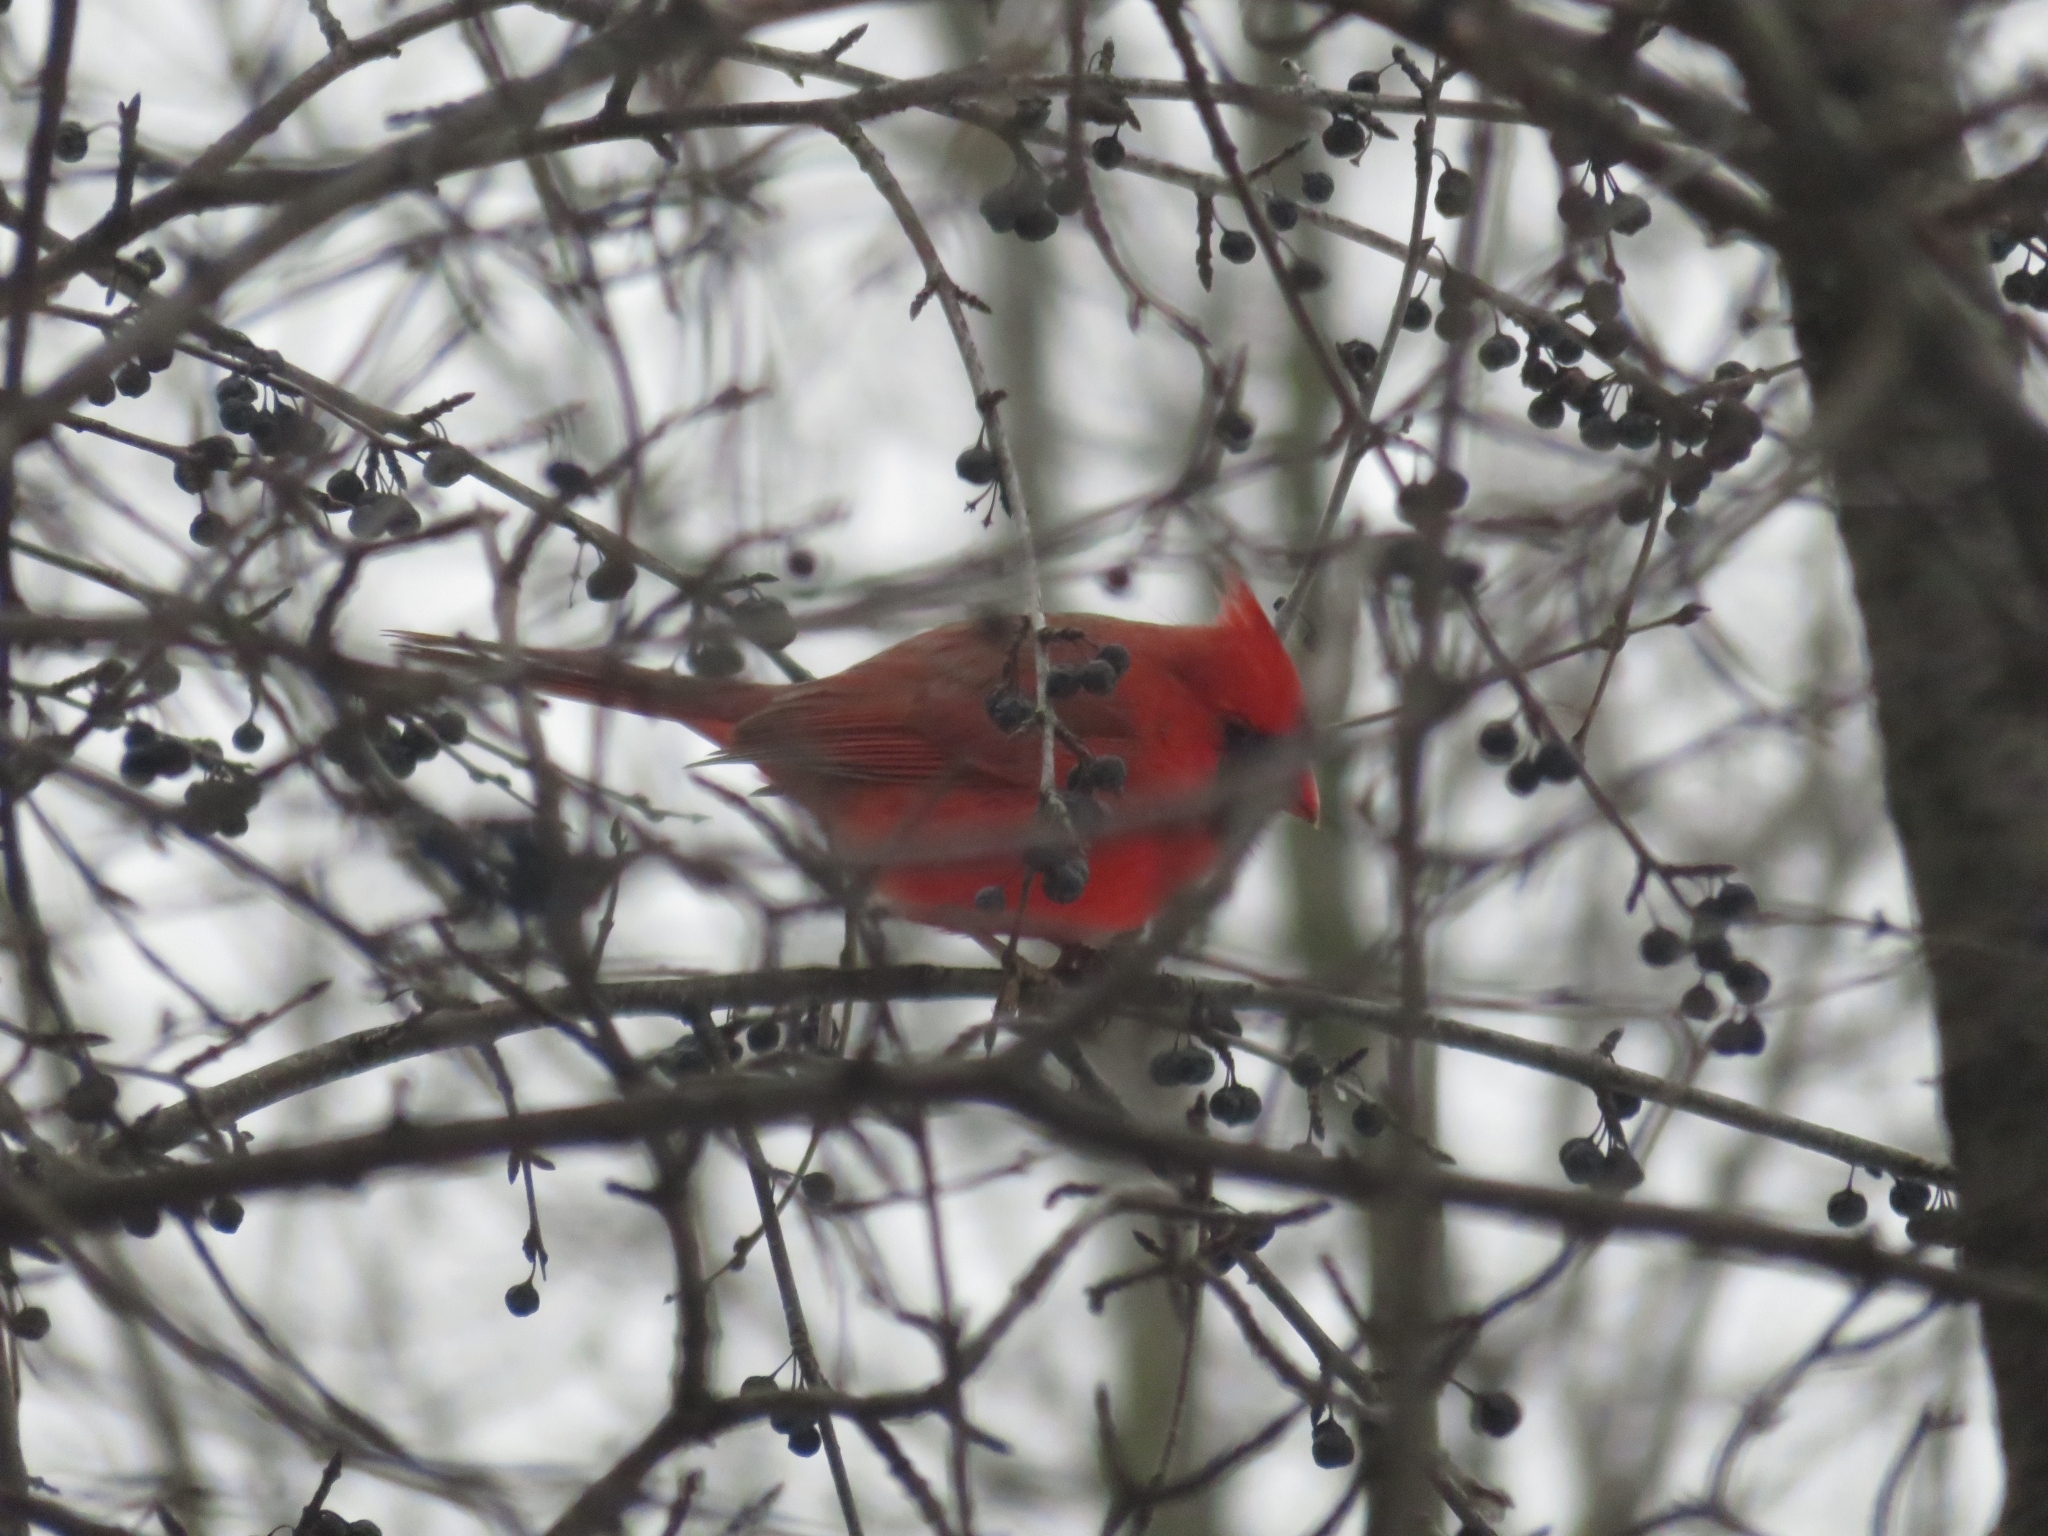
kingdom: Animalia
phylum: Chordata
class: Aves
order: Passeriformes
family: Cardinalidae
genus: Cardinalis
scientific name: Cardinalis cardinalis
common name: Northern cardinal
